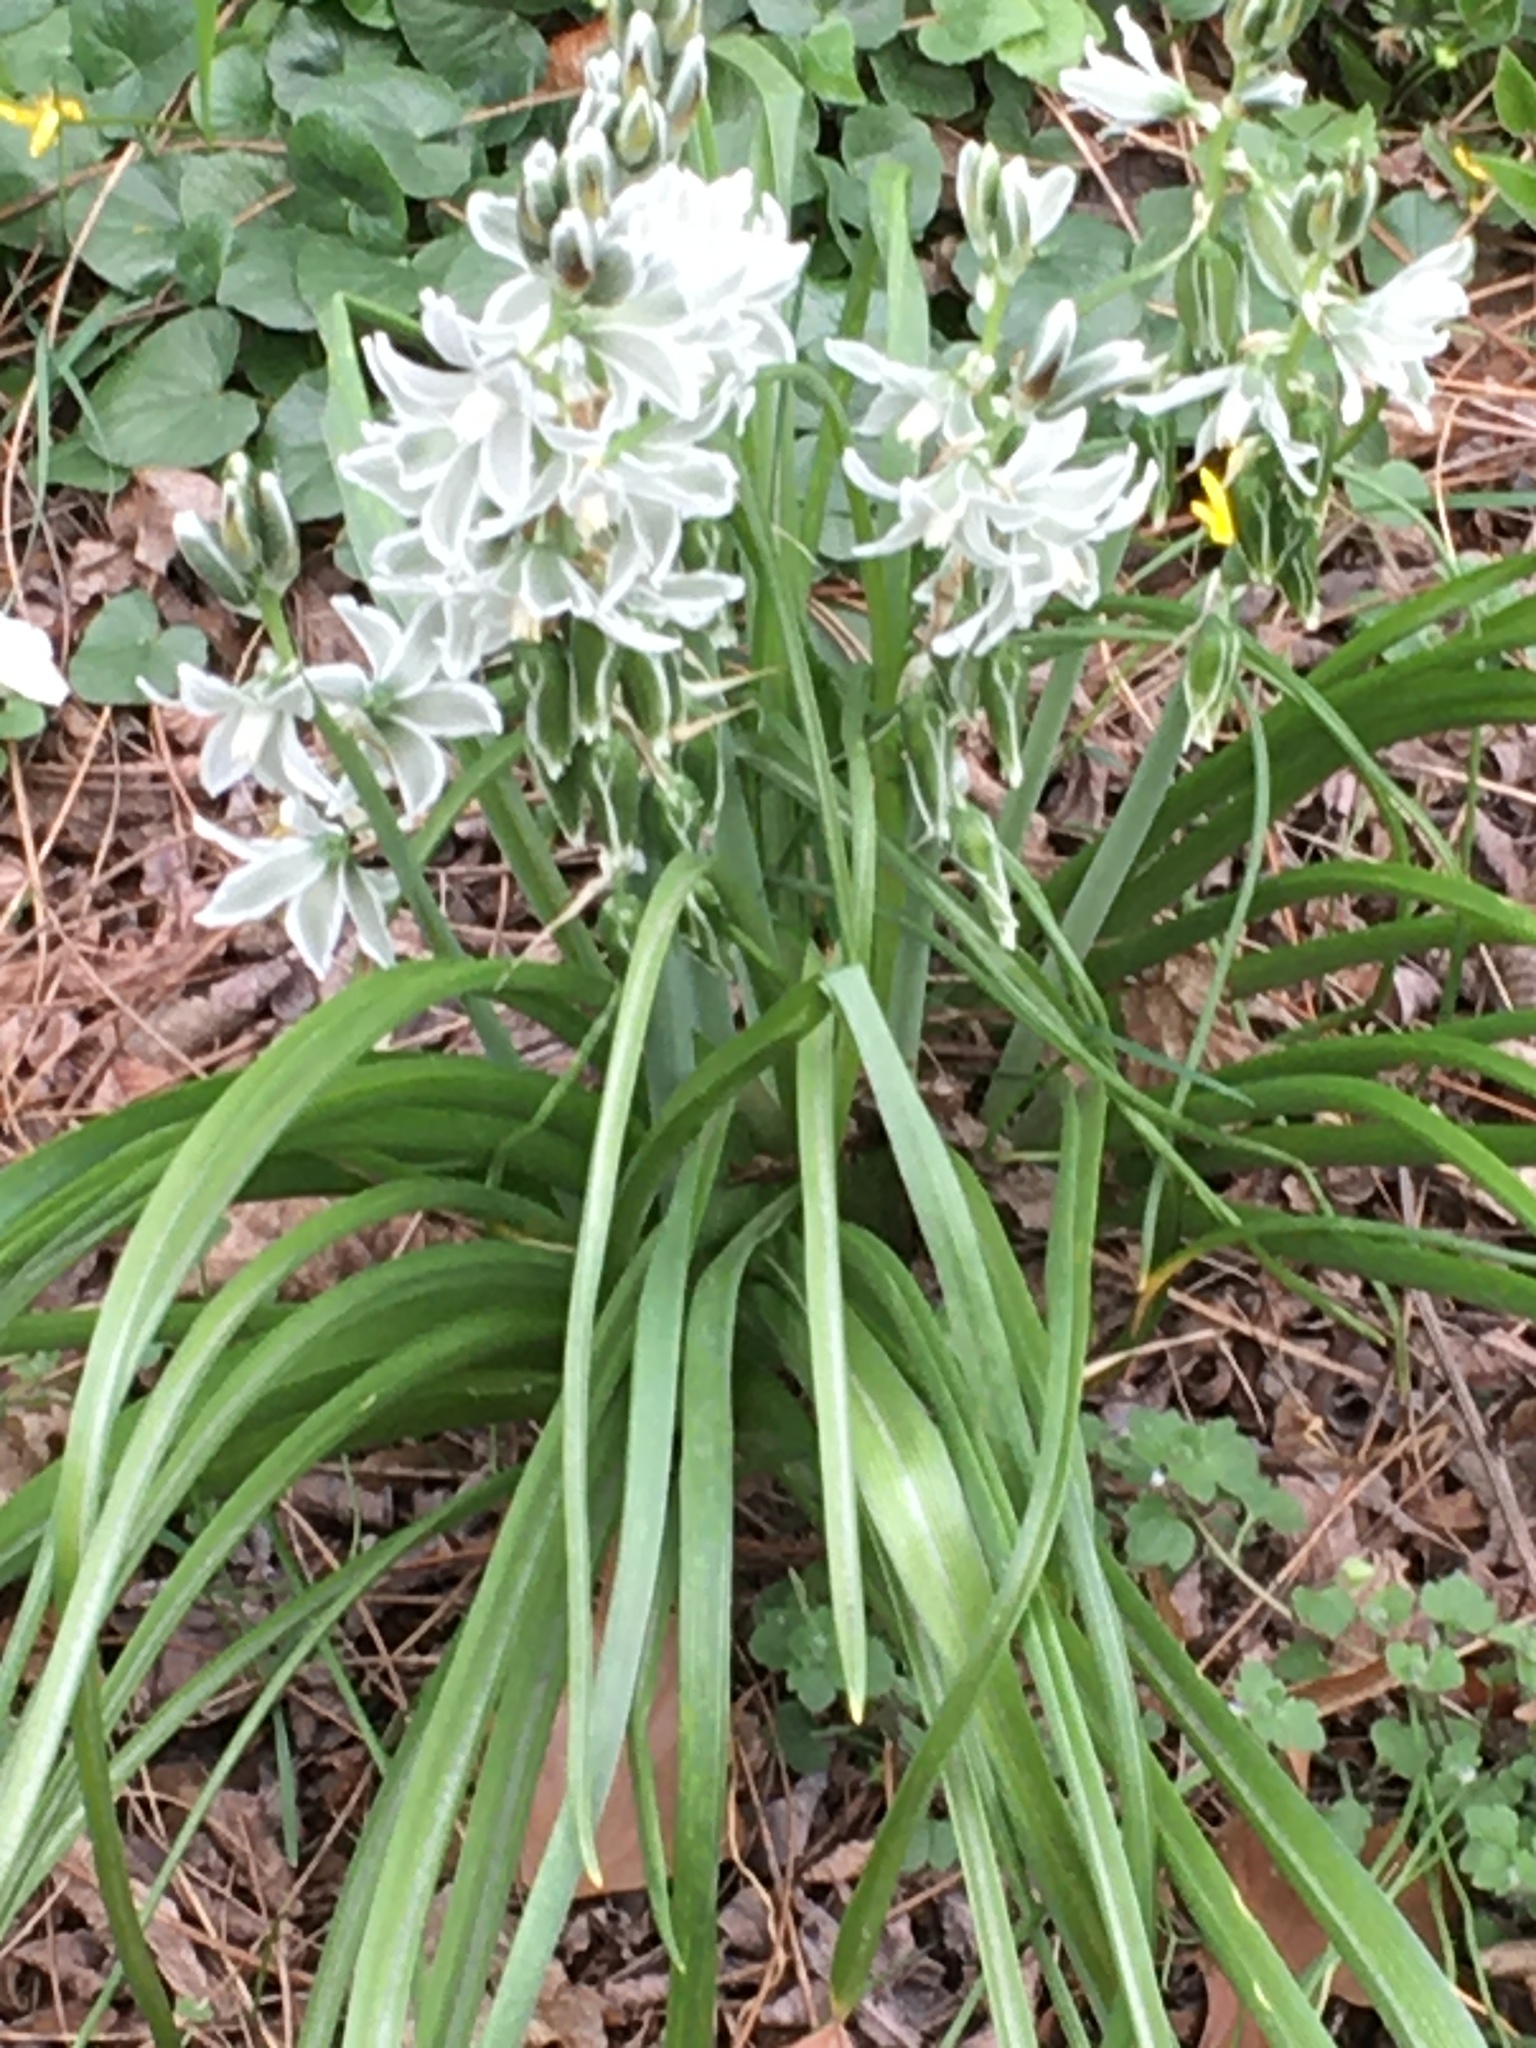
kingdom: Plantae
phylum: Tracheophyta
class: Liliopsida
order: Asparagales
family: Asparagaceae
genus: Ornithogalum
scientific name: Ornithogalum nutans
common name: Drooping star-of-bethlehem
